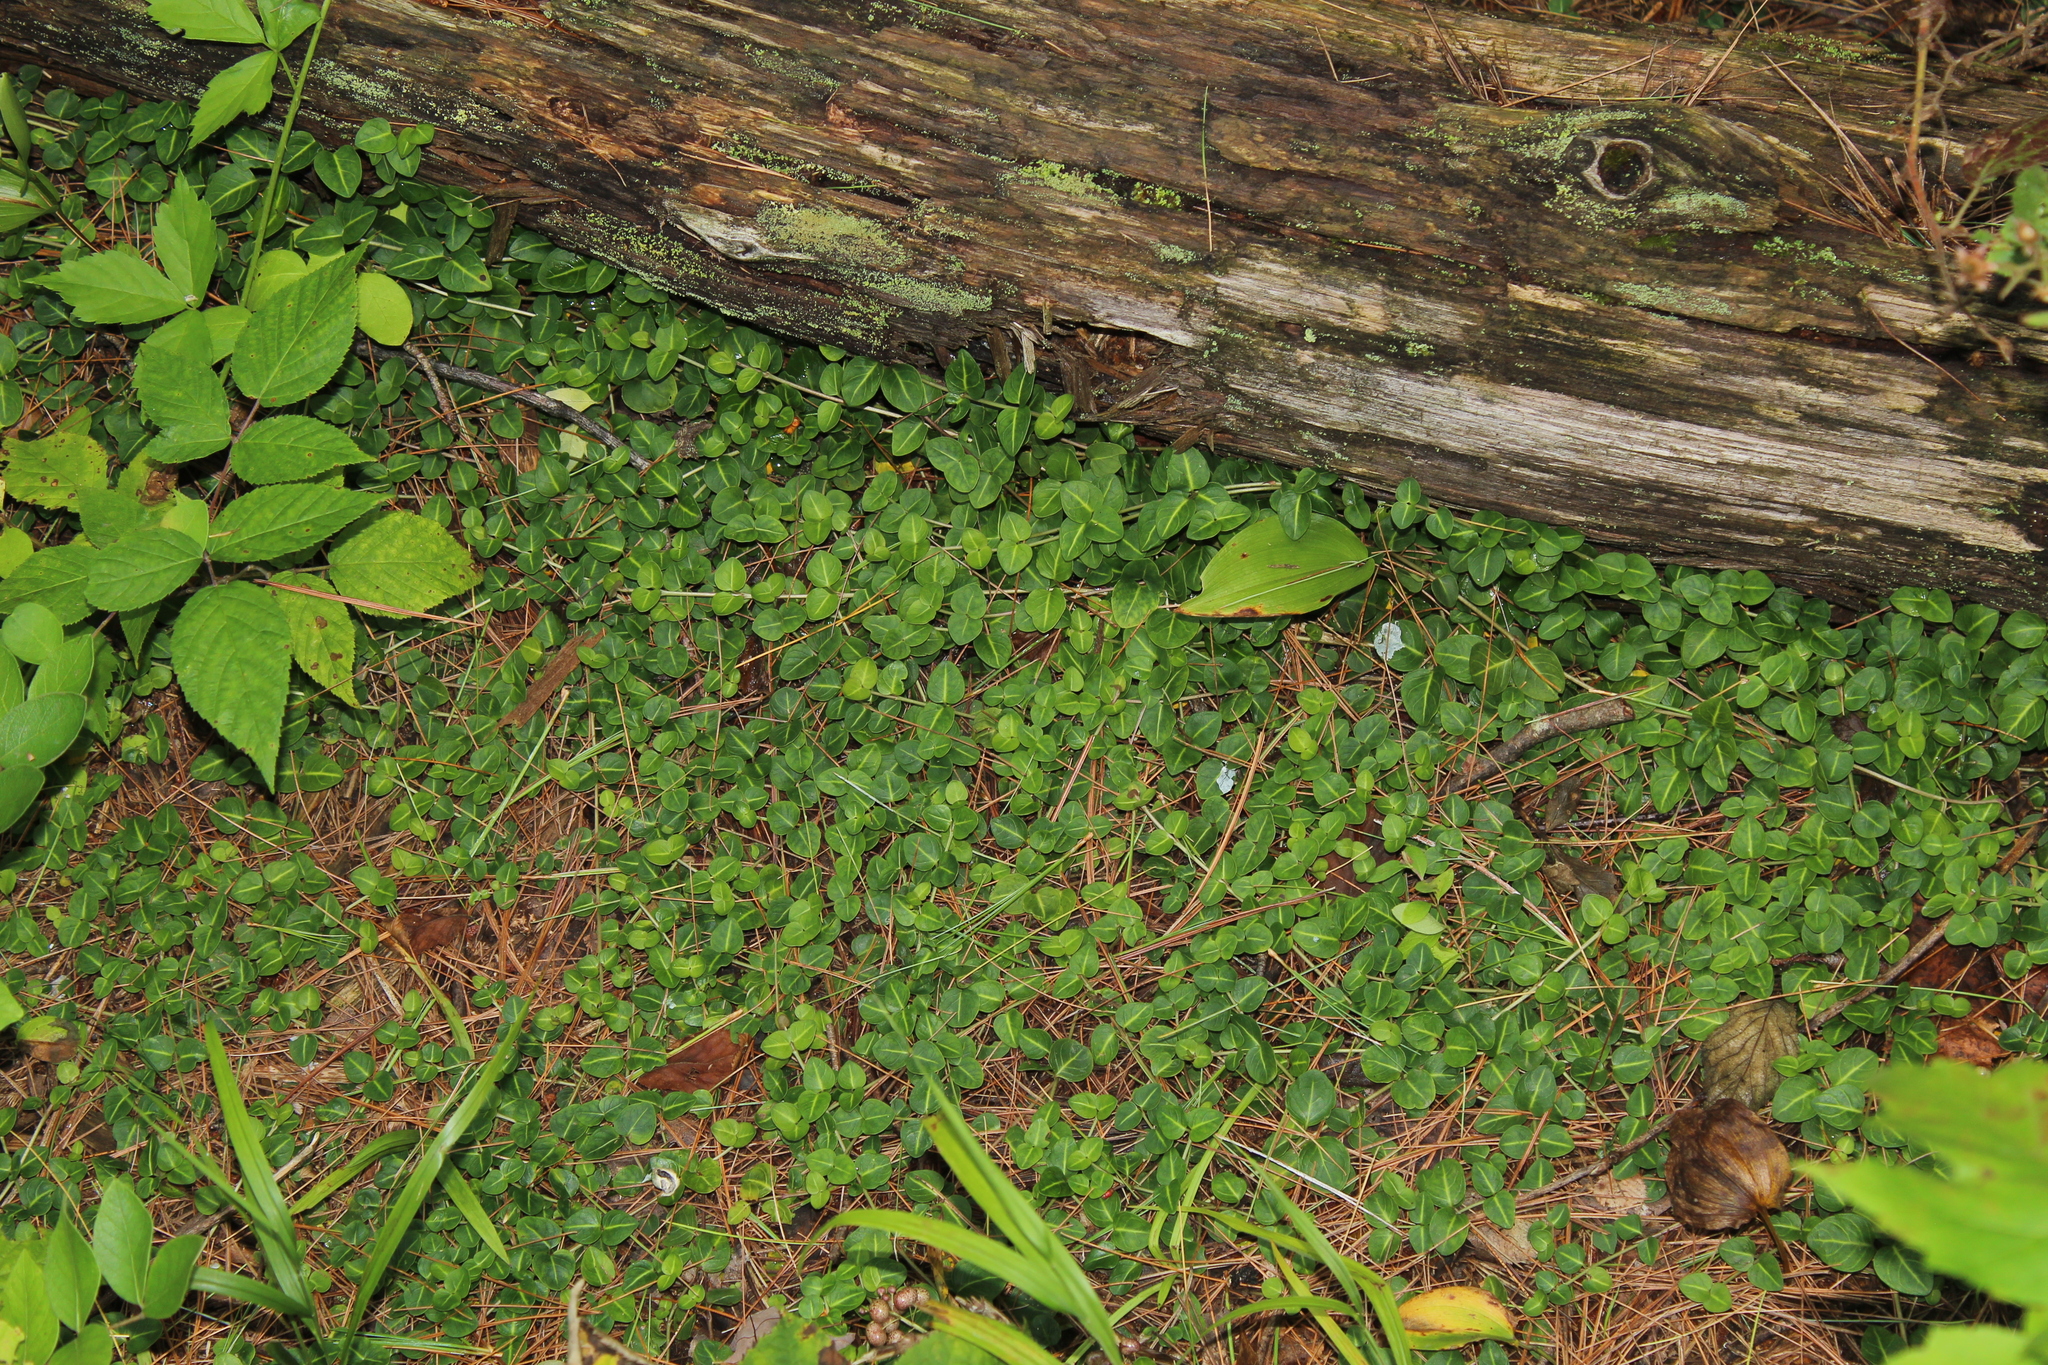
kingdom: Plantae
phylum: Tracheophyta
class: Magnoliopsida
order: Gentianales
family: Rubiaceae
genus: Mitchella
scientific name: Mitchella repens
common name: Partridge-berry
